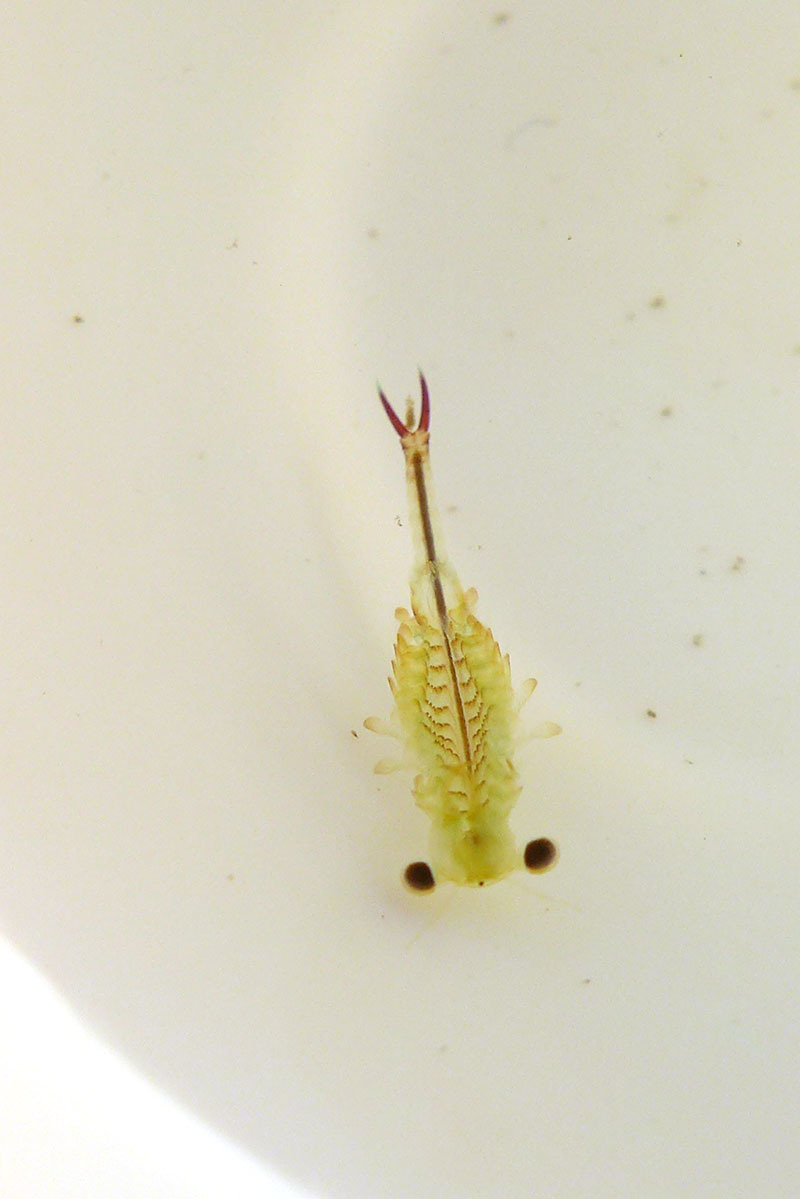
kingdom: Animalia
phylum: Arthropoda
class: Branchiopoda
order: Anostraca
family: Chirocephalidae
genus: Eubranchipus
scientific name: Eubranchipus oregonus
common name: Oregon fairy shrimp
